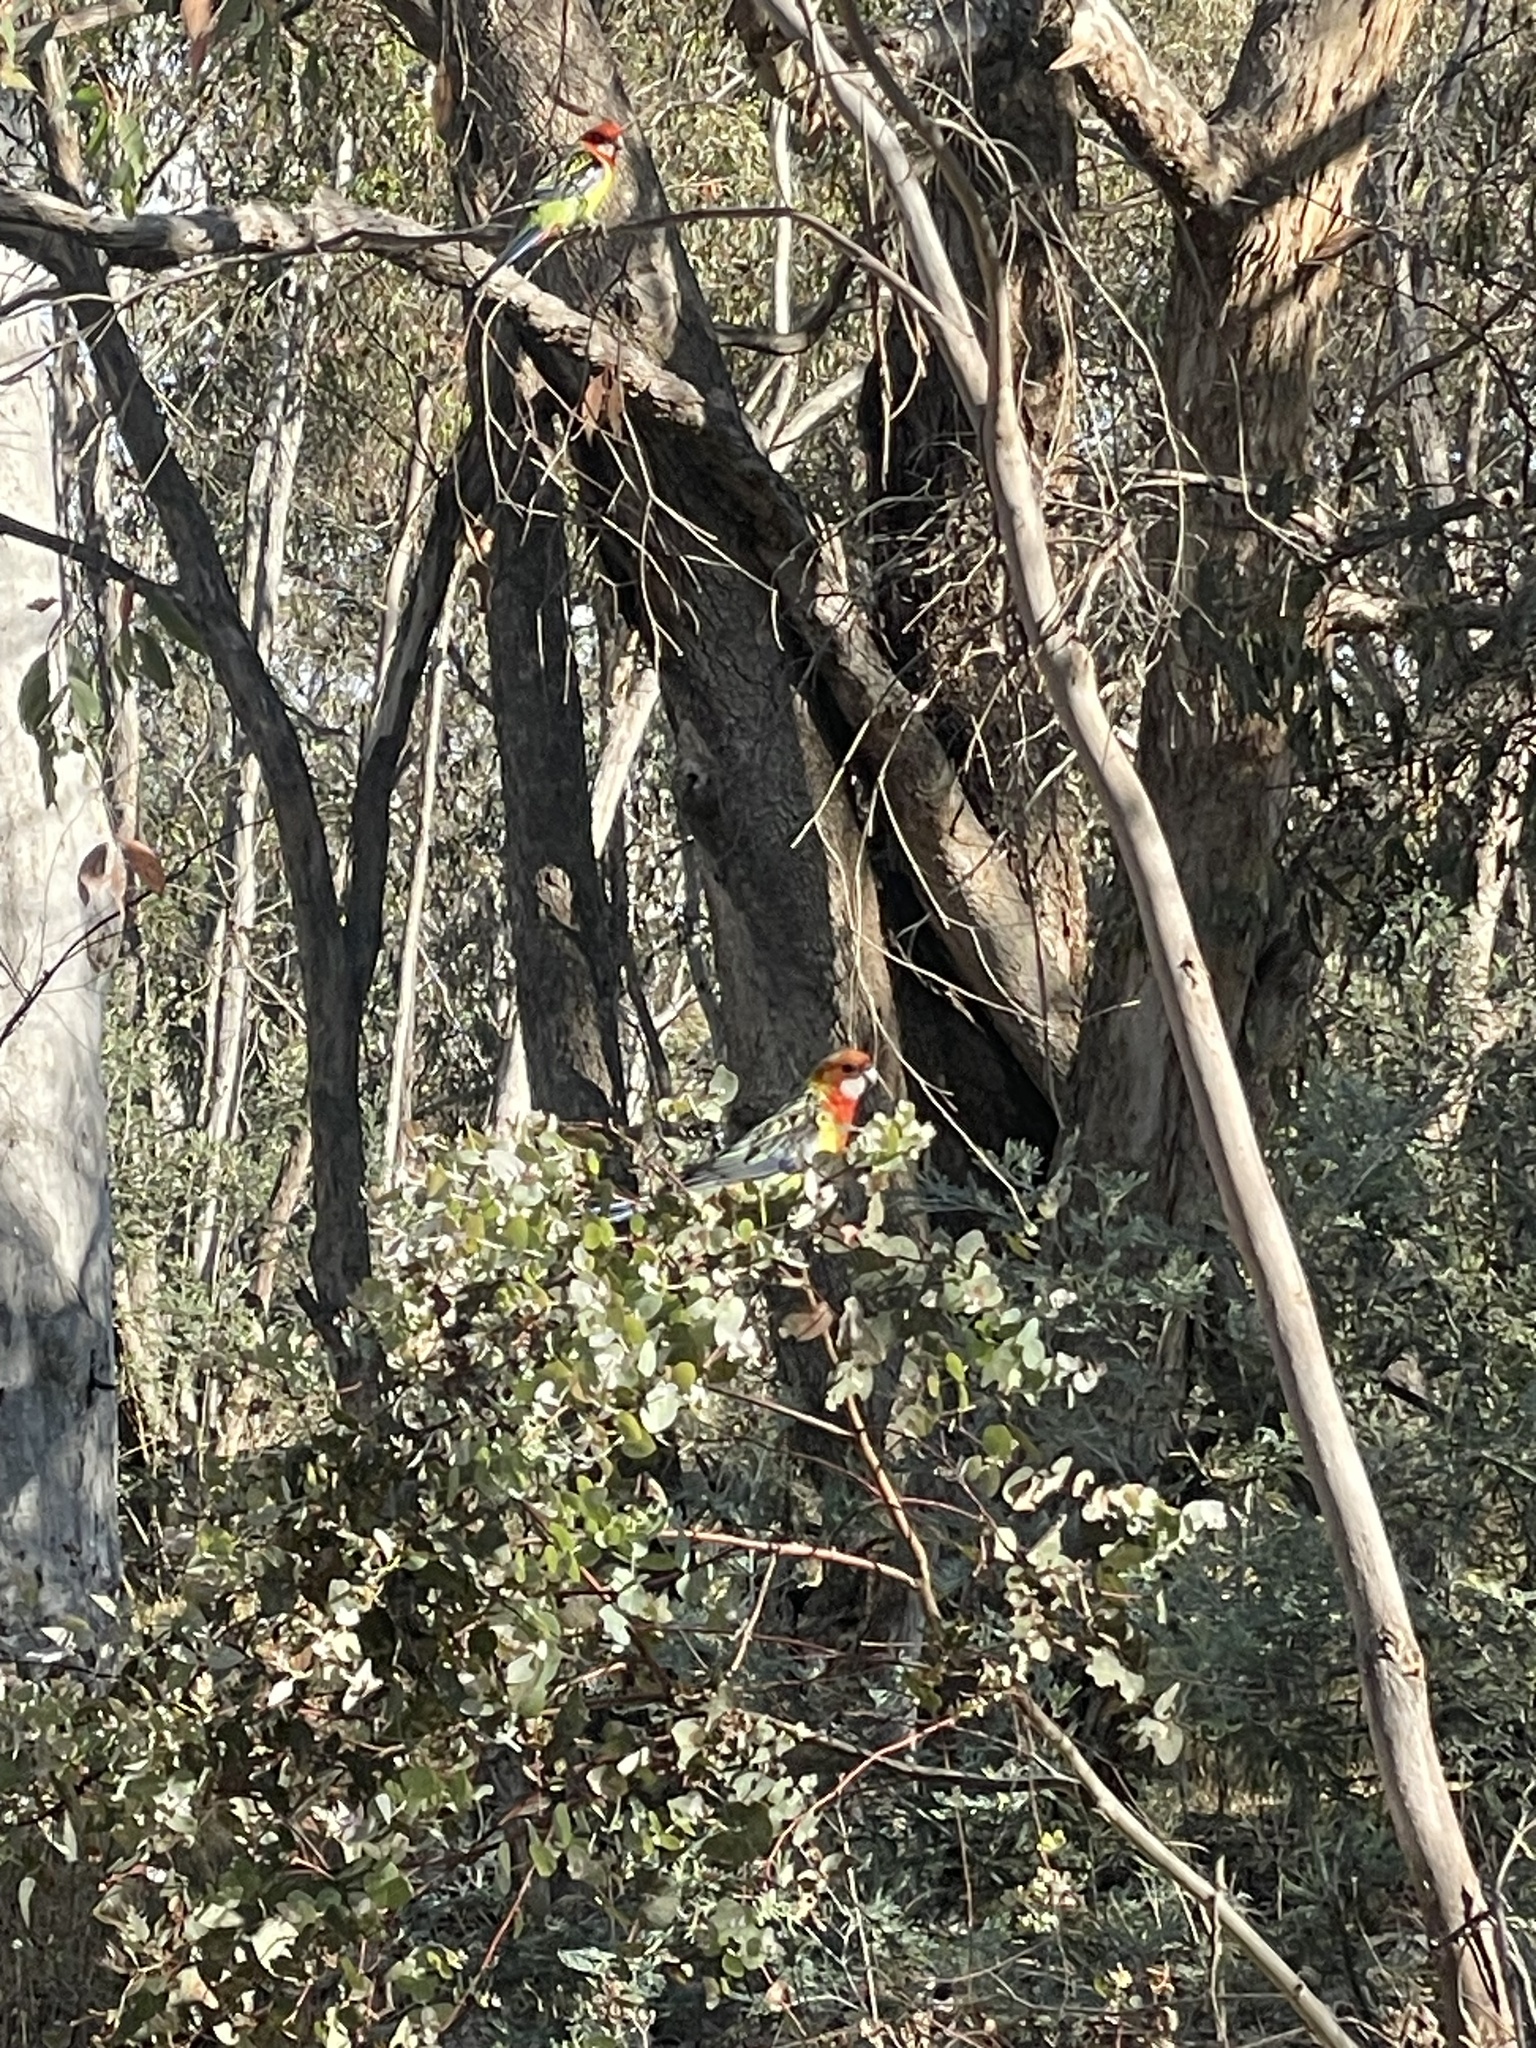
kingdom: Animalia
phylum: Chordata
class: Aves
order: Psittaciformes
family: Psittacidae
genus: Platycercus
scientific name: Platycercus eximius
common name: Eastern rosella
